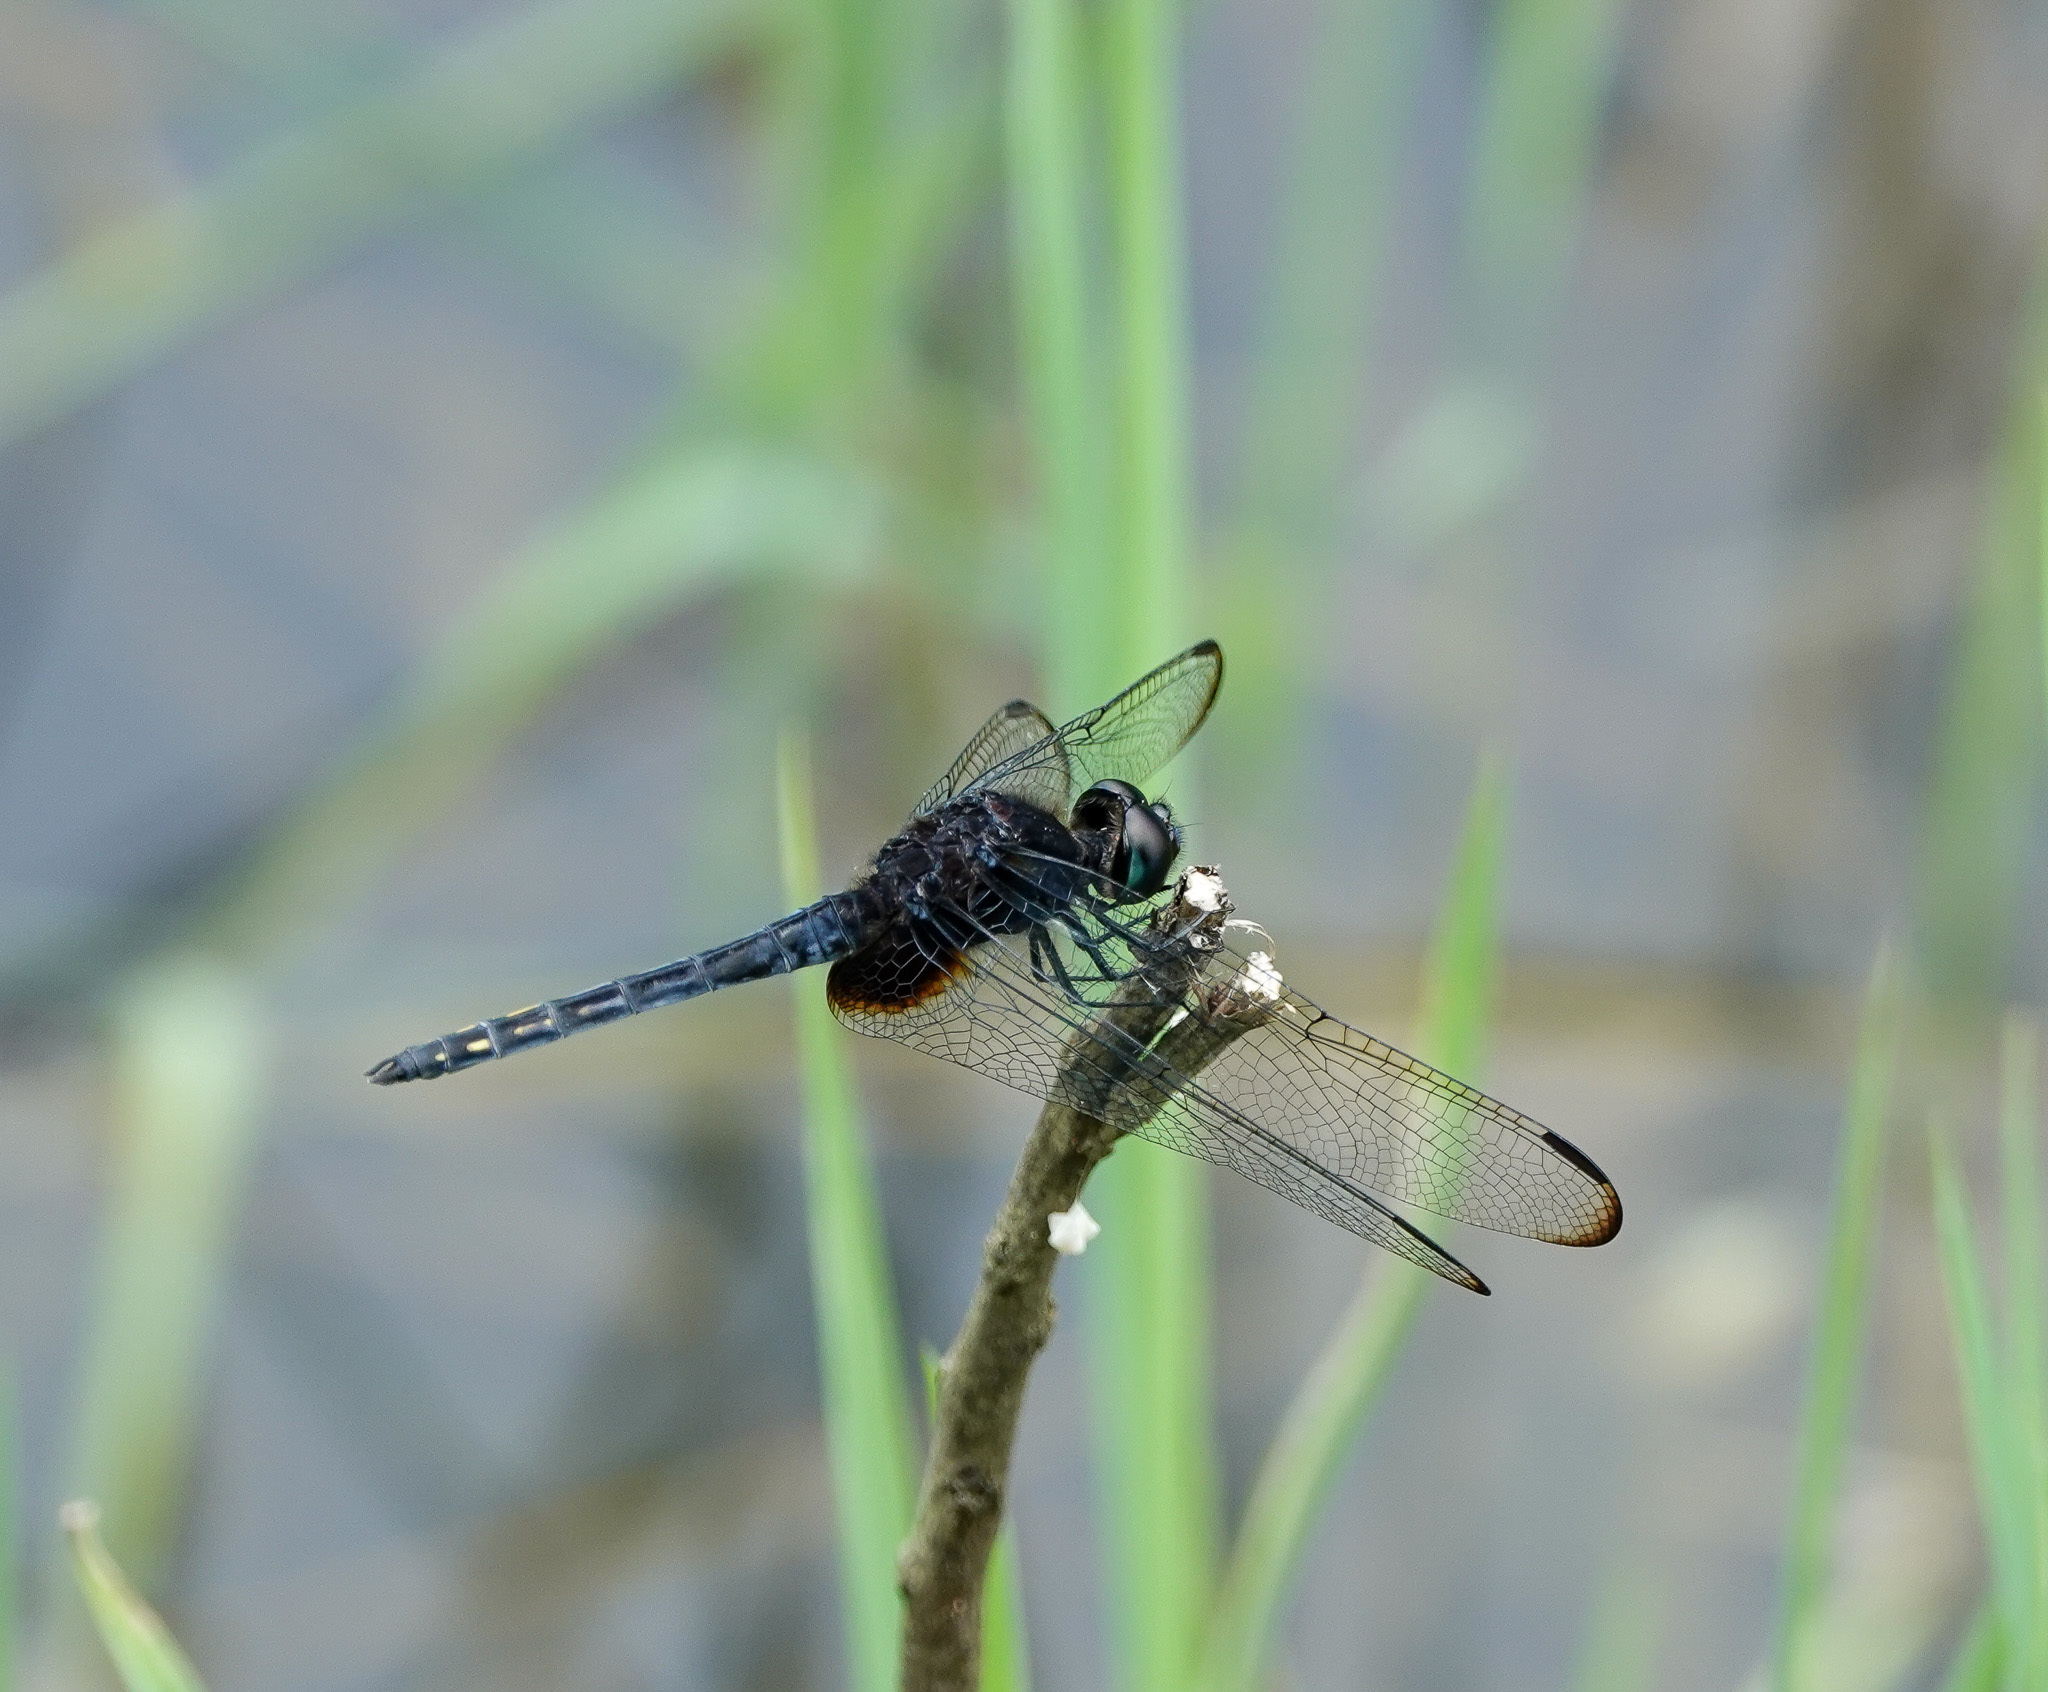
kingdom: Animalia
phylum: Arthropoda
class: Insecta
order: Odonata
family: Libellulidae
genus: Indothemis
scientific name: Indothemis limbata
